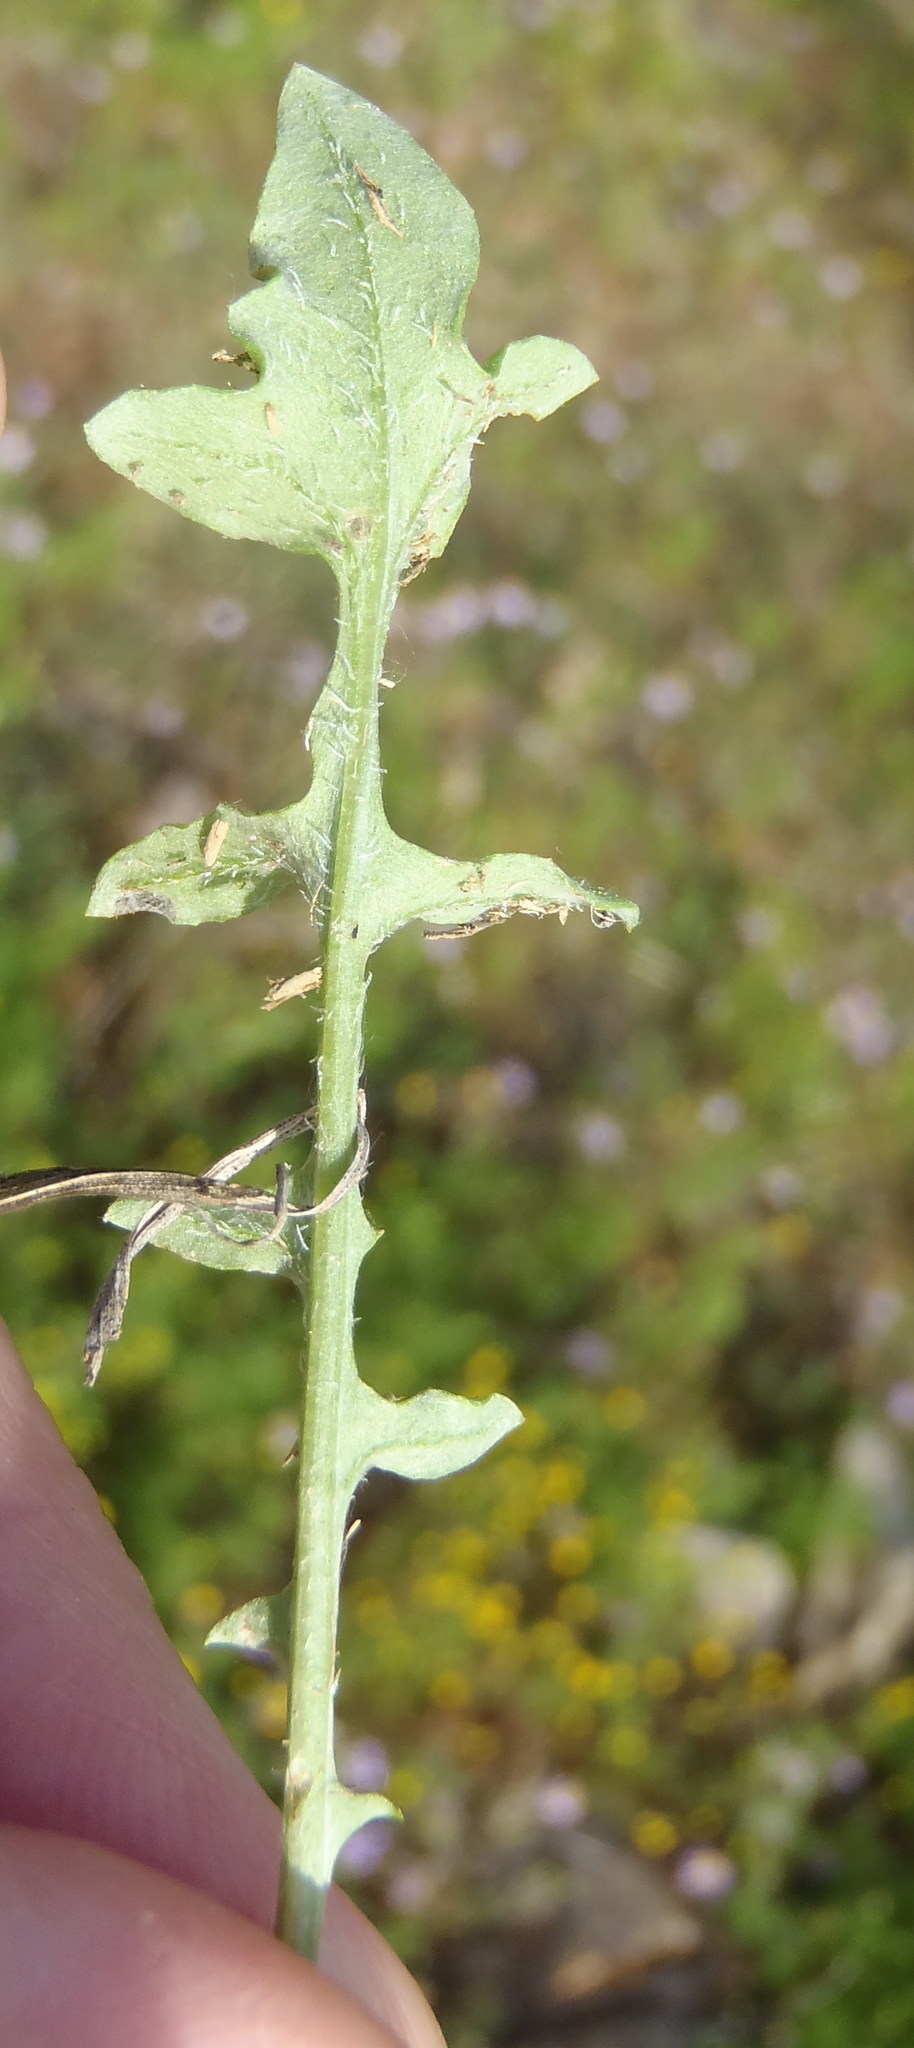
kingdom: Plantae
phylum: Tracheophyta
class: Magnoliopsida
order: Asterales
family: Asteraceae
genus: Arctotis
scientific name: Arctotis dregei
